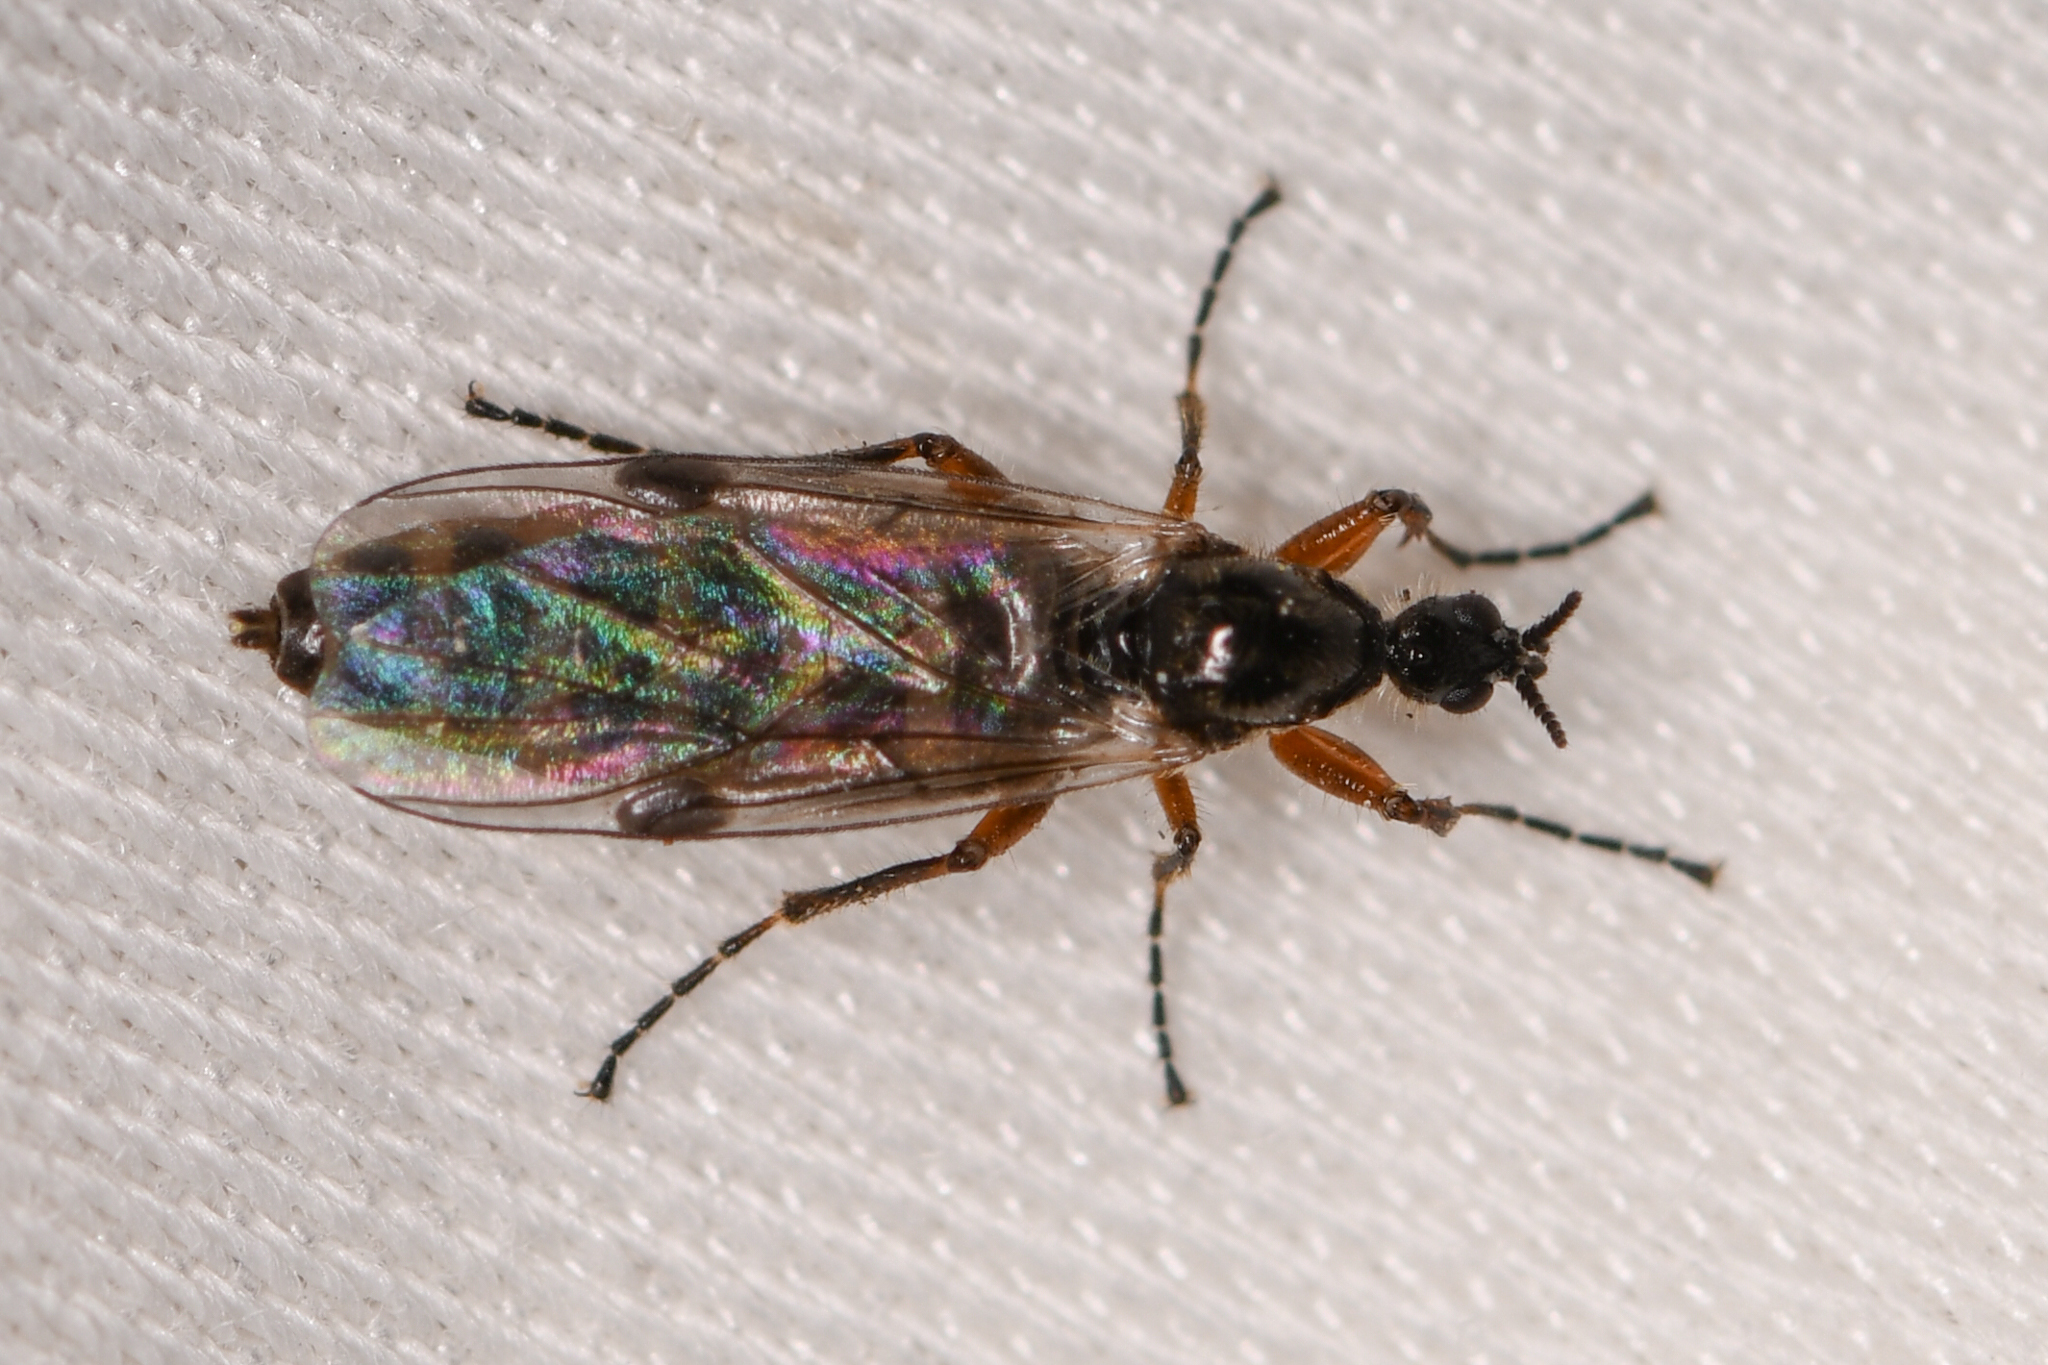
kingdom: Animalia
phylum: Arthropoda
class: Insecta
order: Diptera
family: Bibionidae
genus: Bibiodes
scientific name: Bibiodes halteralis
